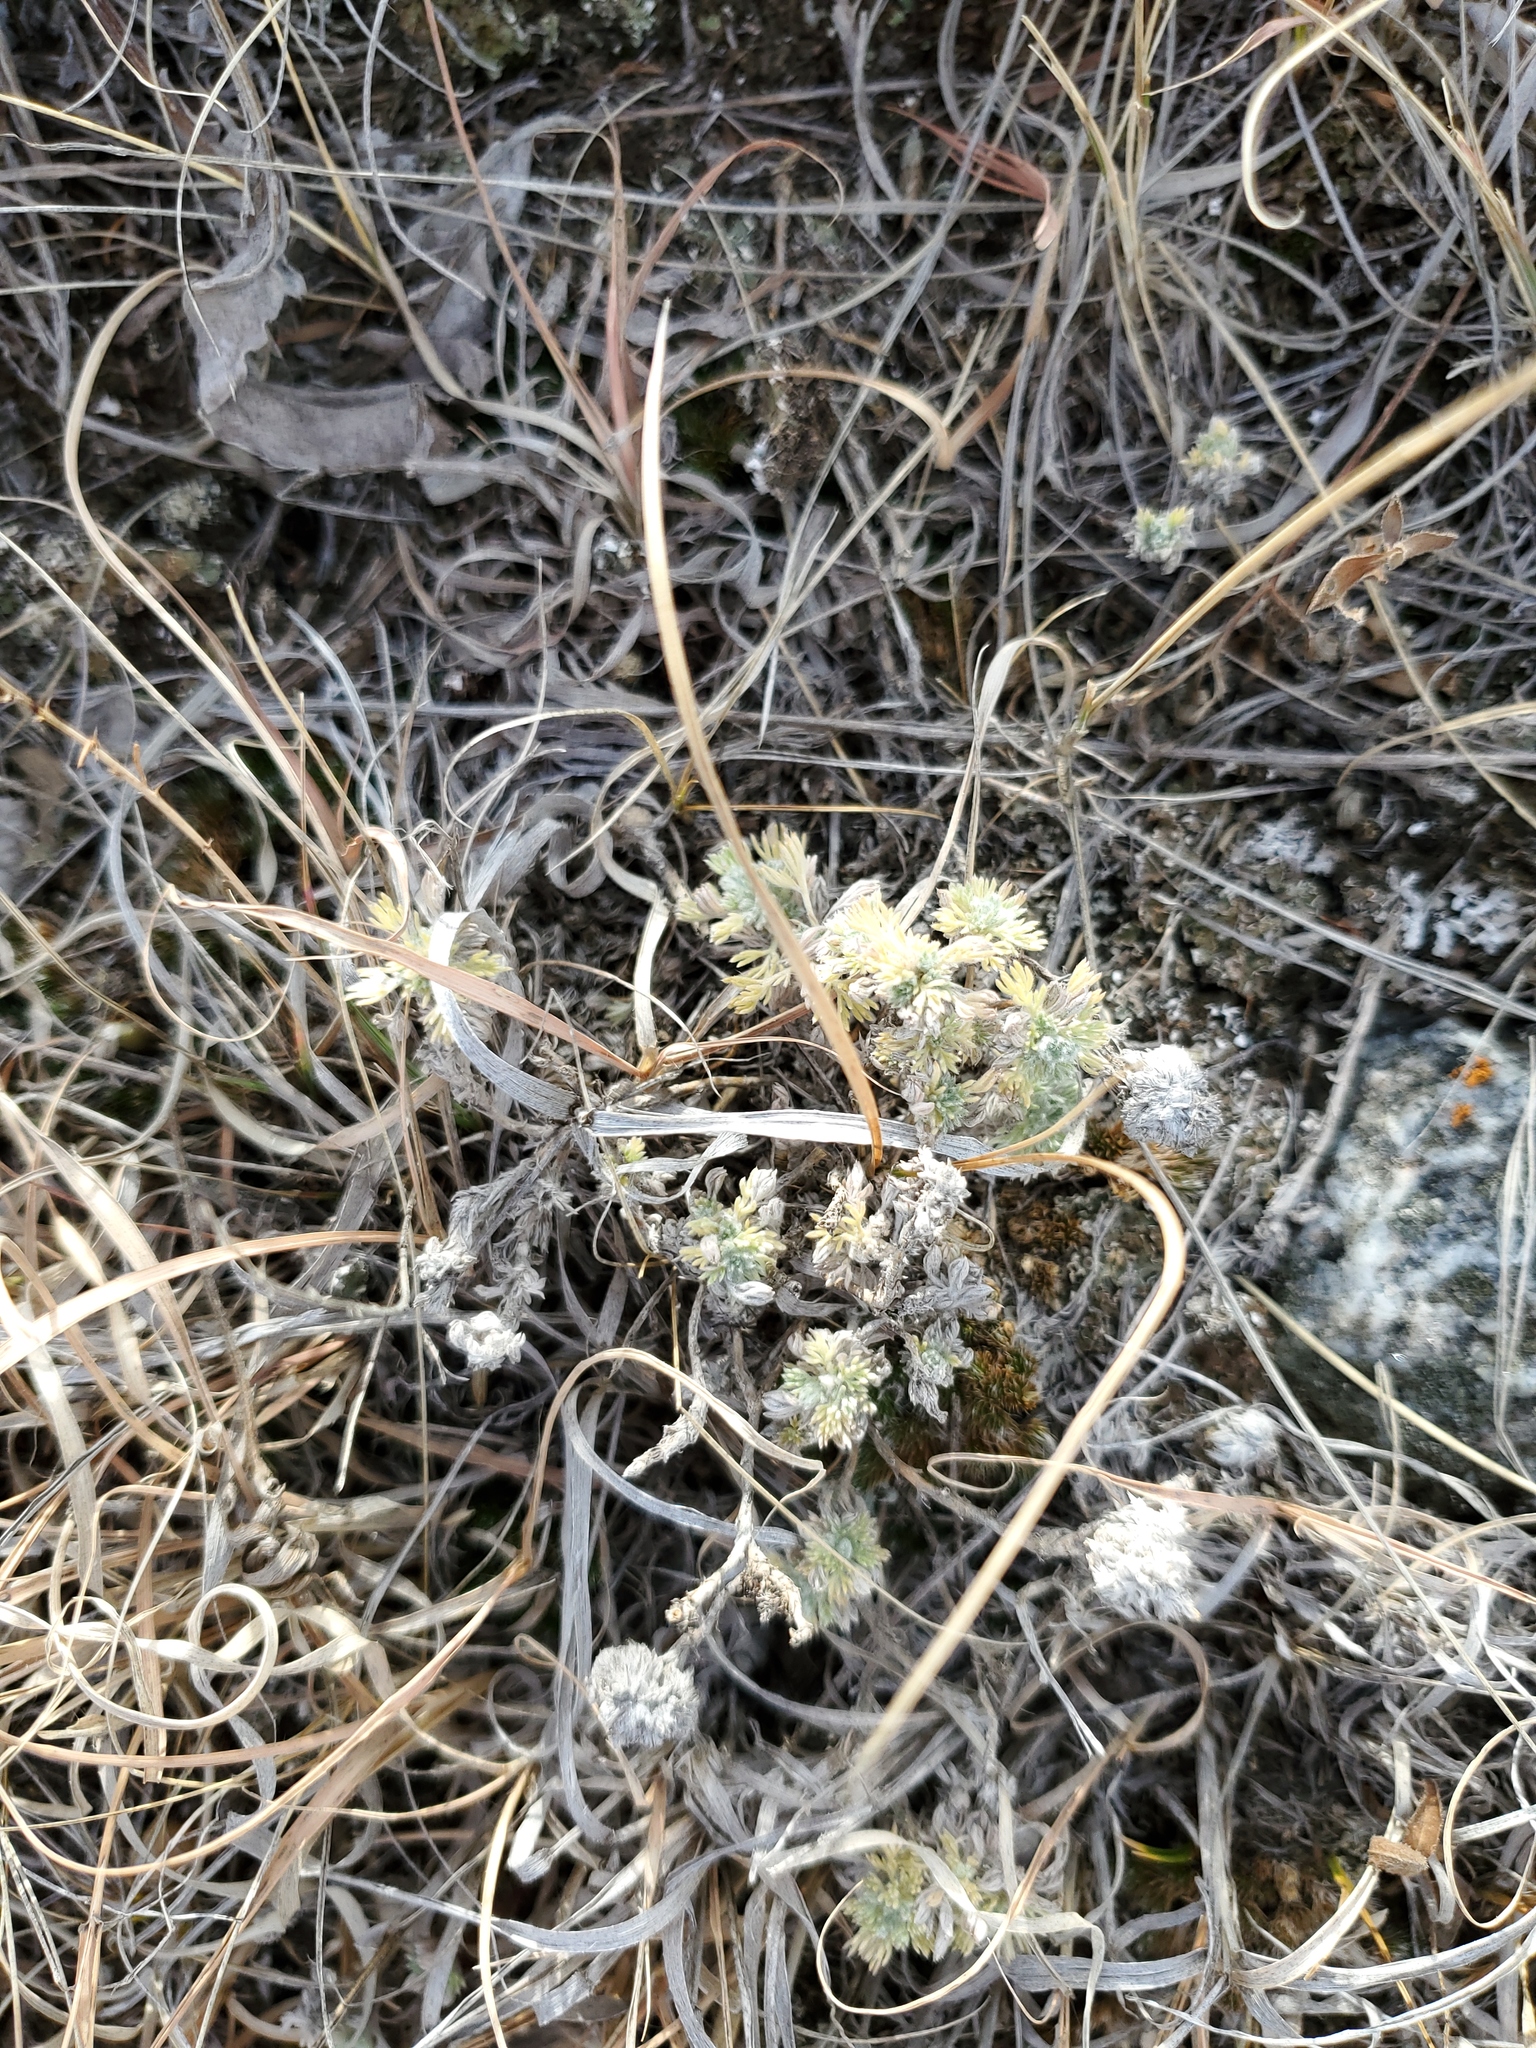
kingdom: Plantae
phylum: Tracheophyta
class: Magnoliopsida
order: Asterales
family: Asteraceae
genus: Artemisia
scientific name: Artemisia frigida
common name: Prairie sagewort
